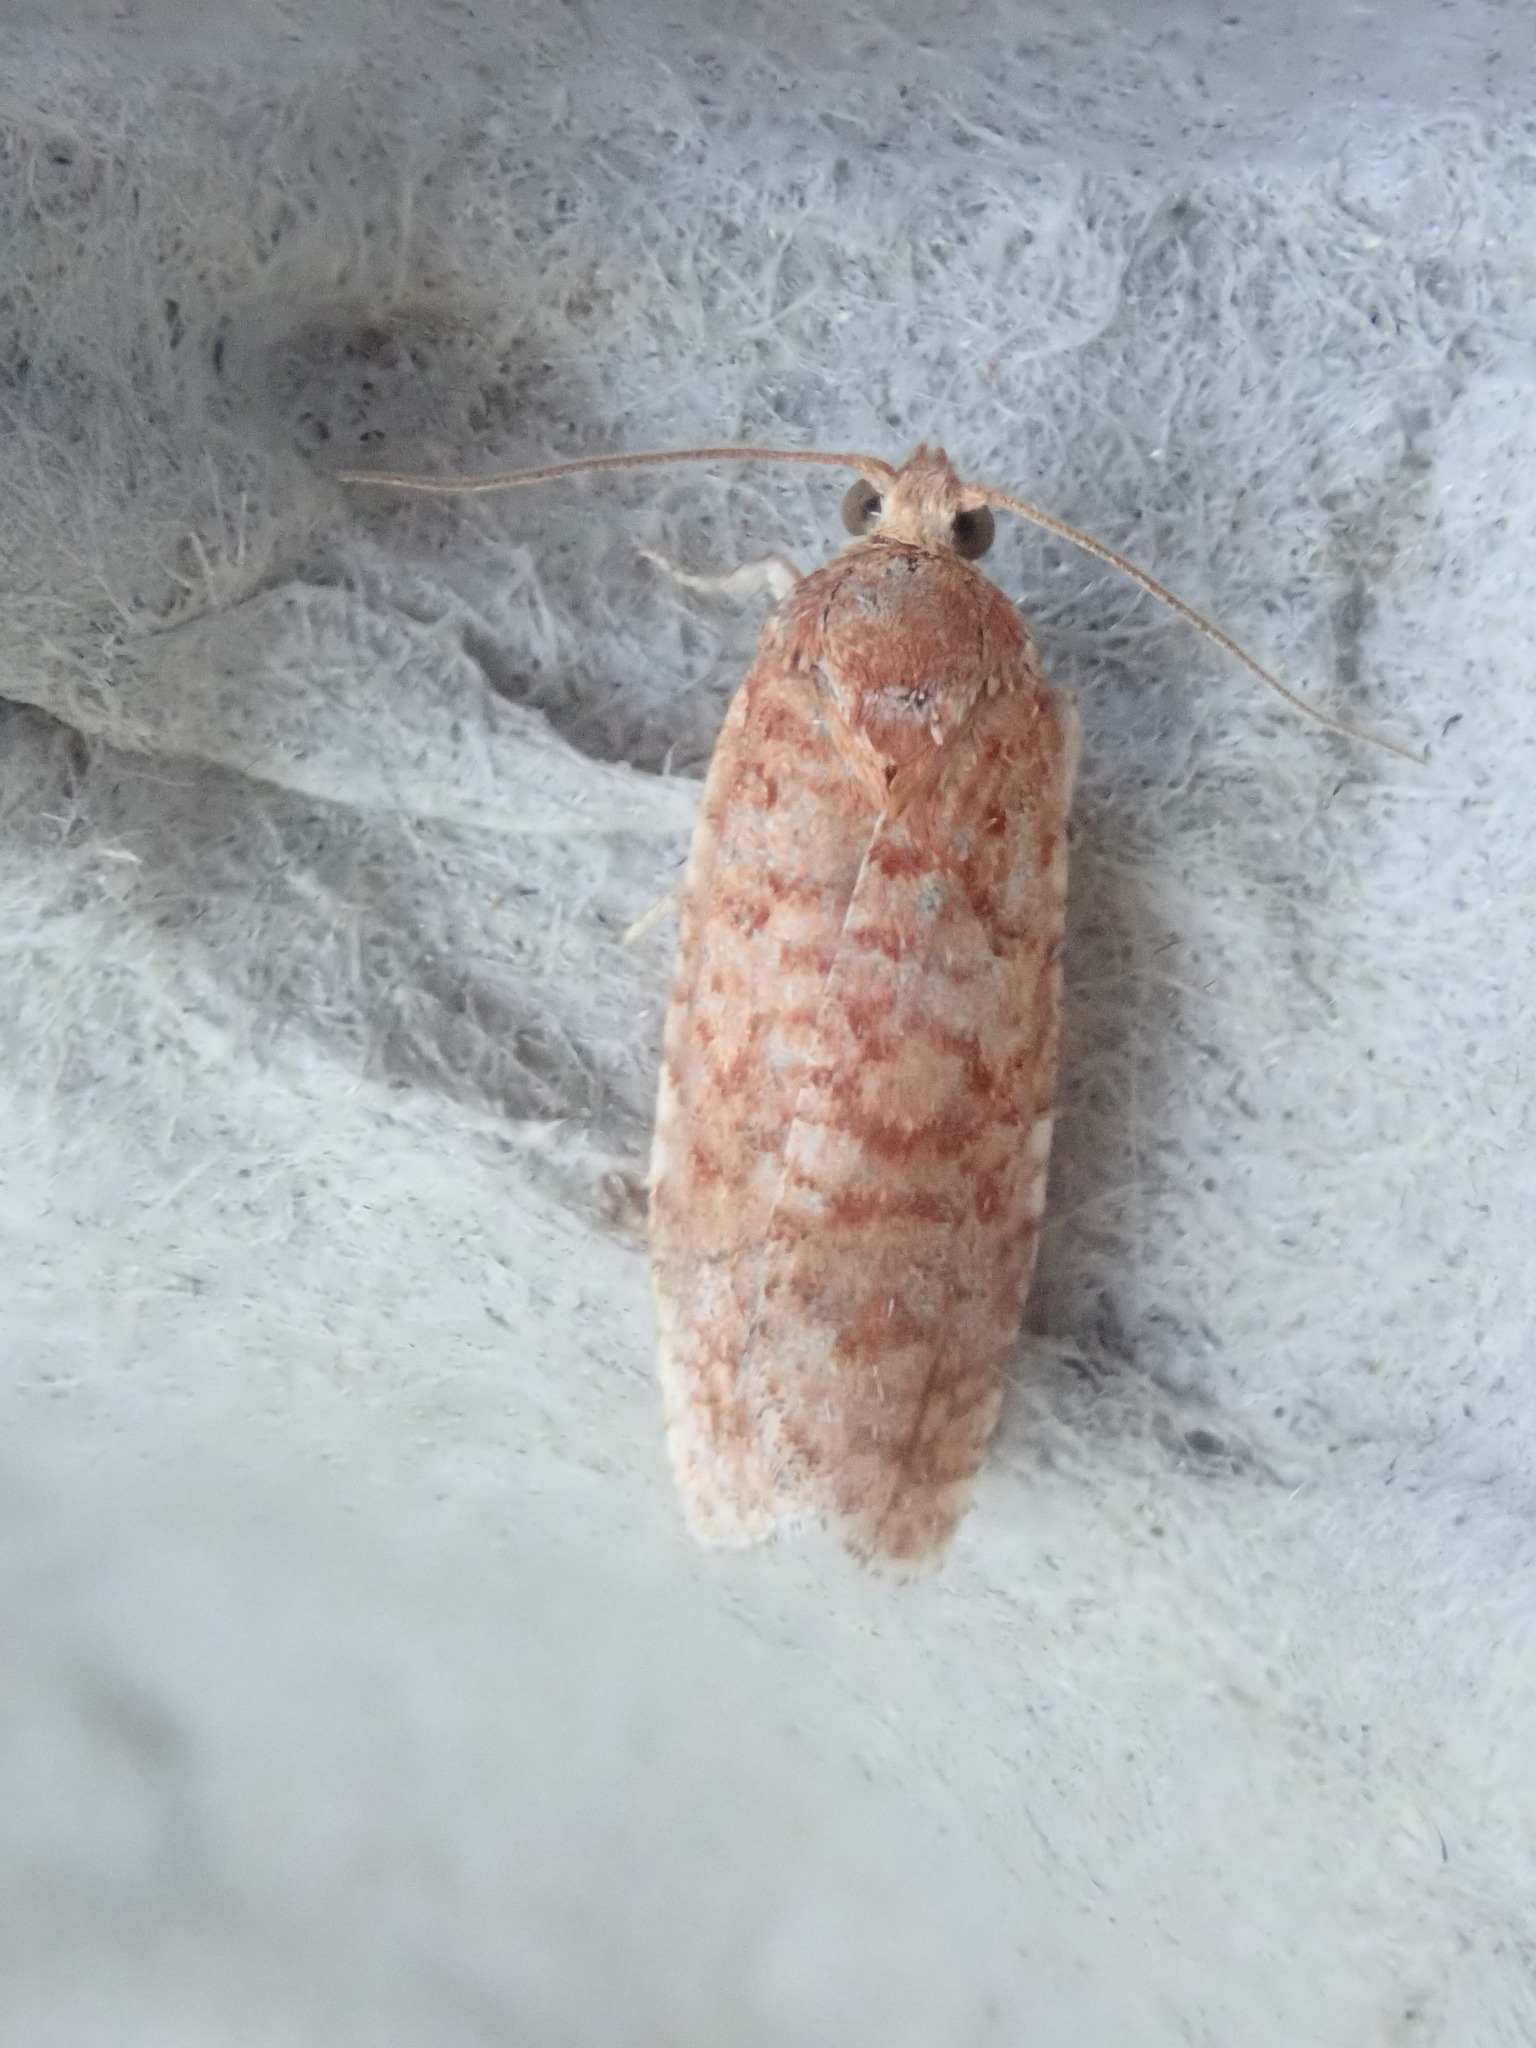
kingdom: Animalia
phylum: Arthropoda
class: Insecta
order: Lepidoptera
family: Tortricidae
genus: Choristoneura
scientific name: Choristoneura pinus
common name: Jack pine budworm
